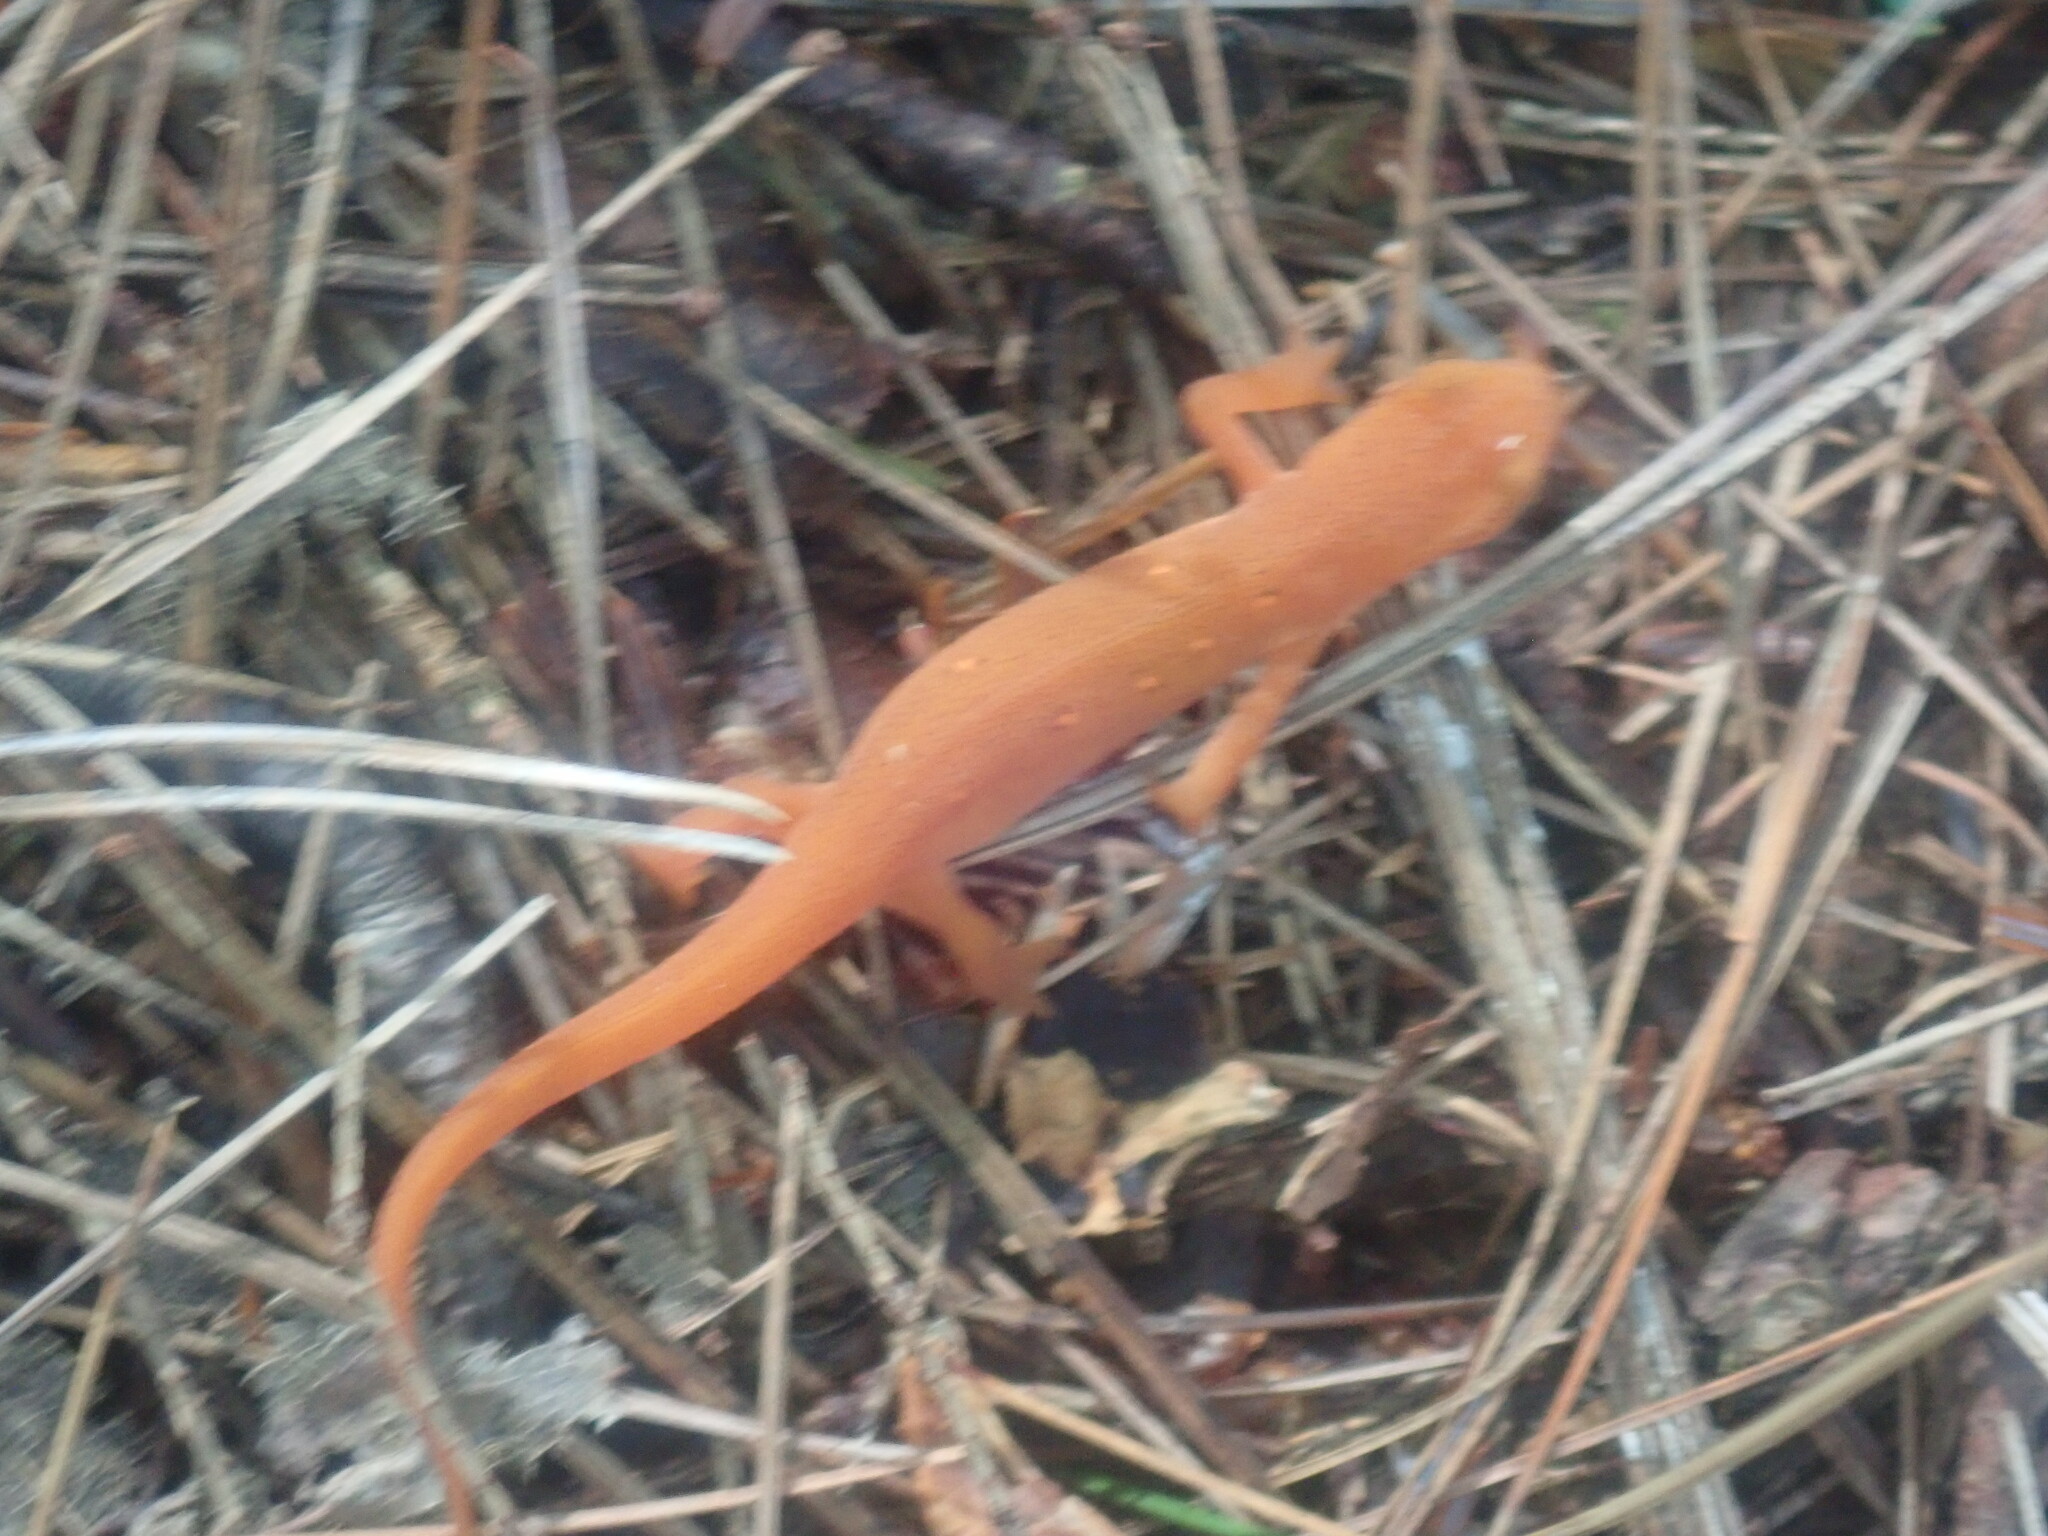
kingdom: Animalia
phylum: Chordata
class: Amphibia
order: Caudata
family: Salamandridae
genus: Notophthalmus
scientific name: Notophthalmus viridescens
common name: Eastern newt
